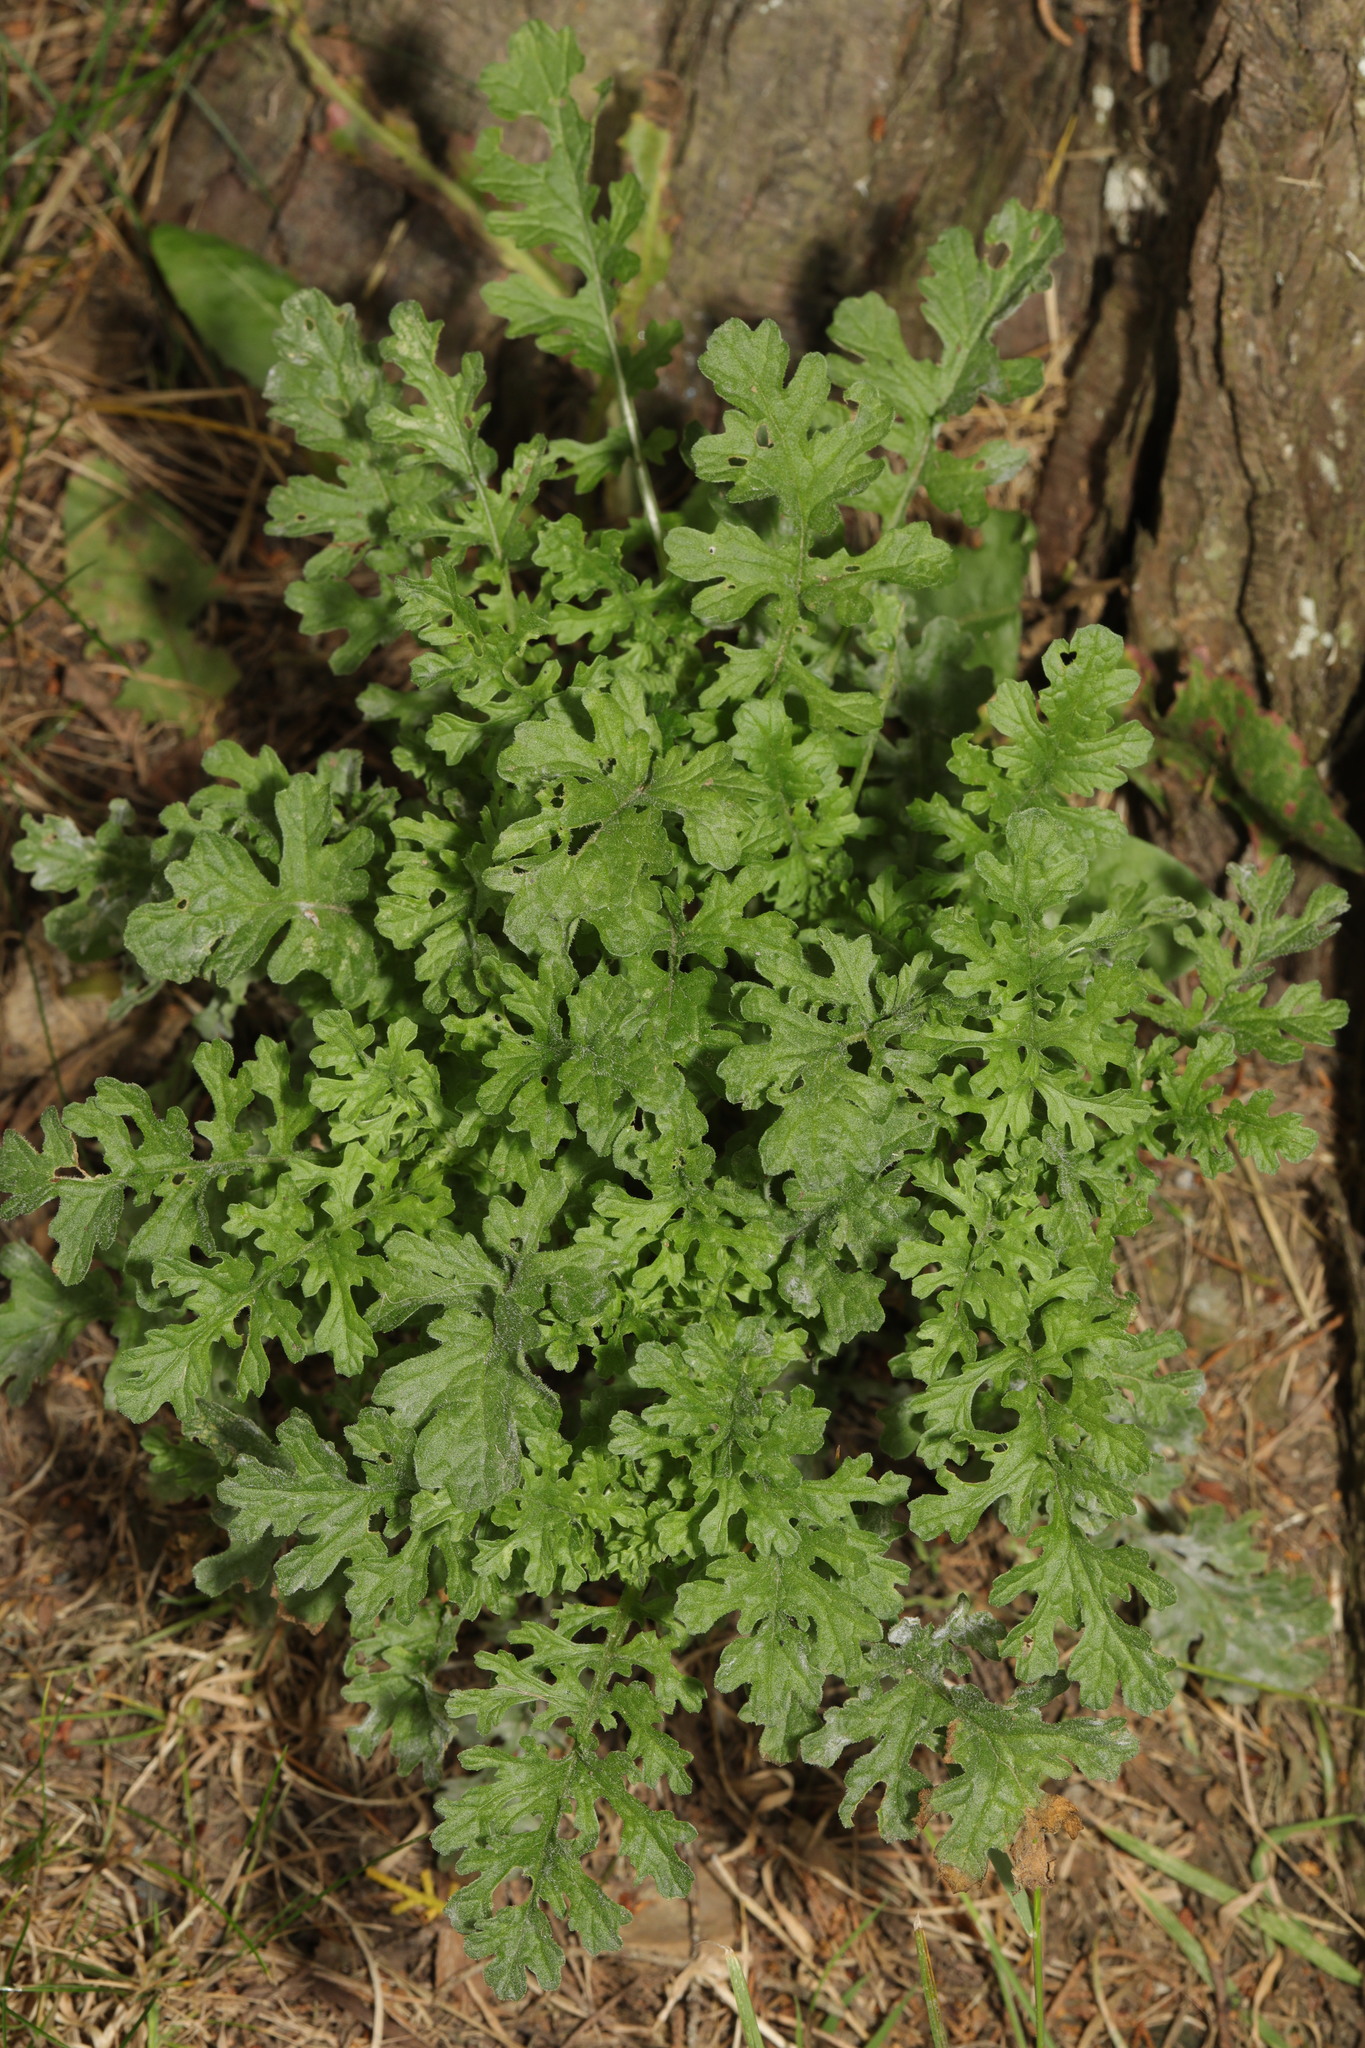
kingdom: Plantae
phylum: Tracheophyta
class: Magnoliopsida
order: Asterales
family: Asteraceae
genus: Jacobaea
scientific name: Jacobaea vulgaris
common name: Stinking willie
